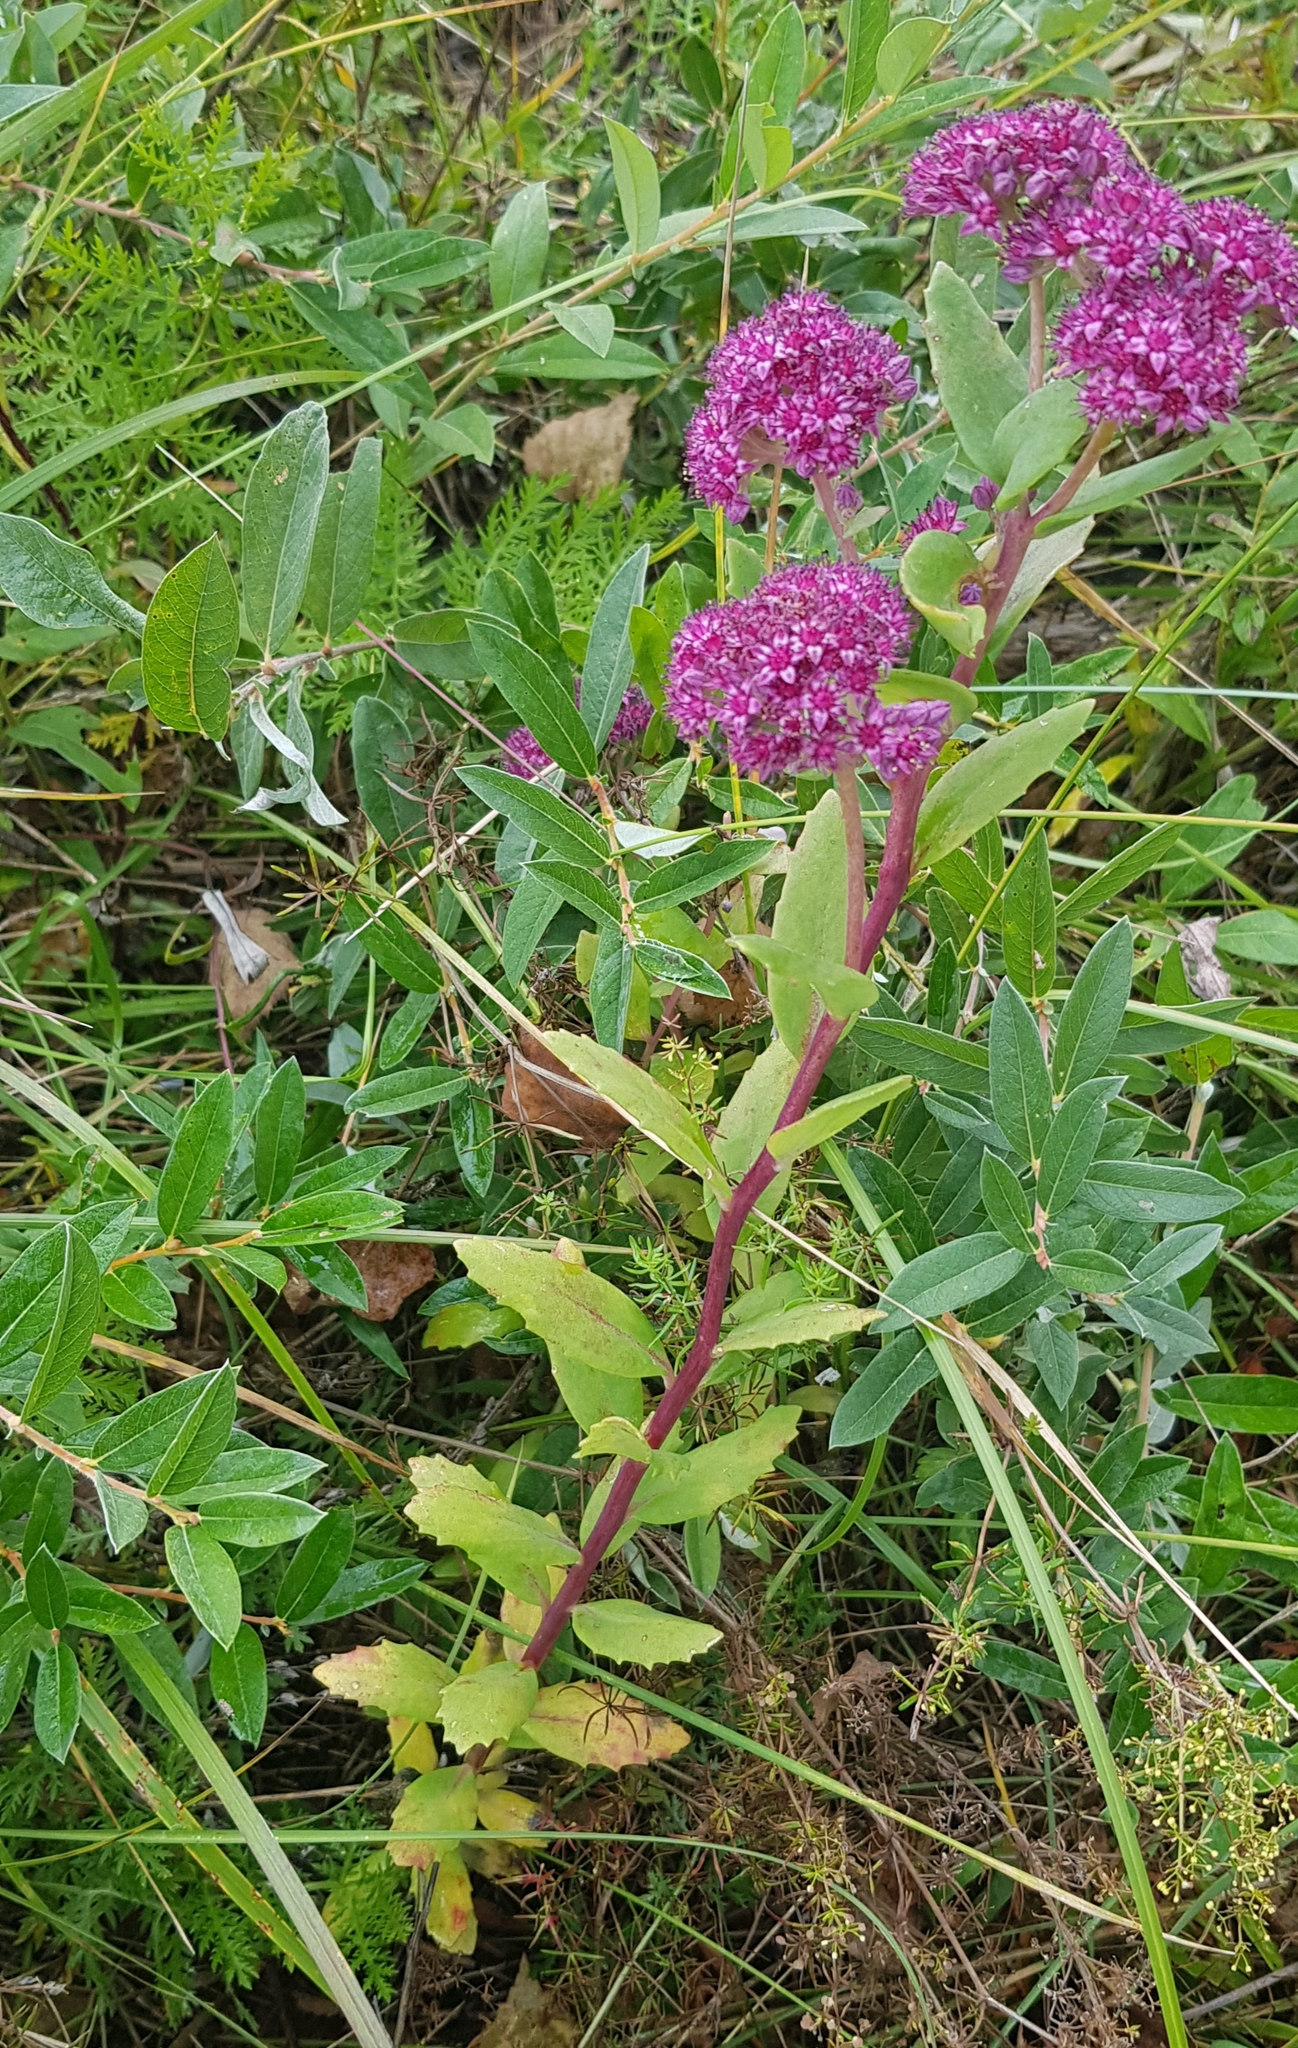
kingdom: Plantae
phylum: Tracheophyta
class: Magnoliopsida
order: Saxifragales
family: Crassulaceae
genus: Hylotelephium
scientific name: Hylotelephium telephium
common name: Live-forever
